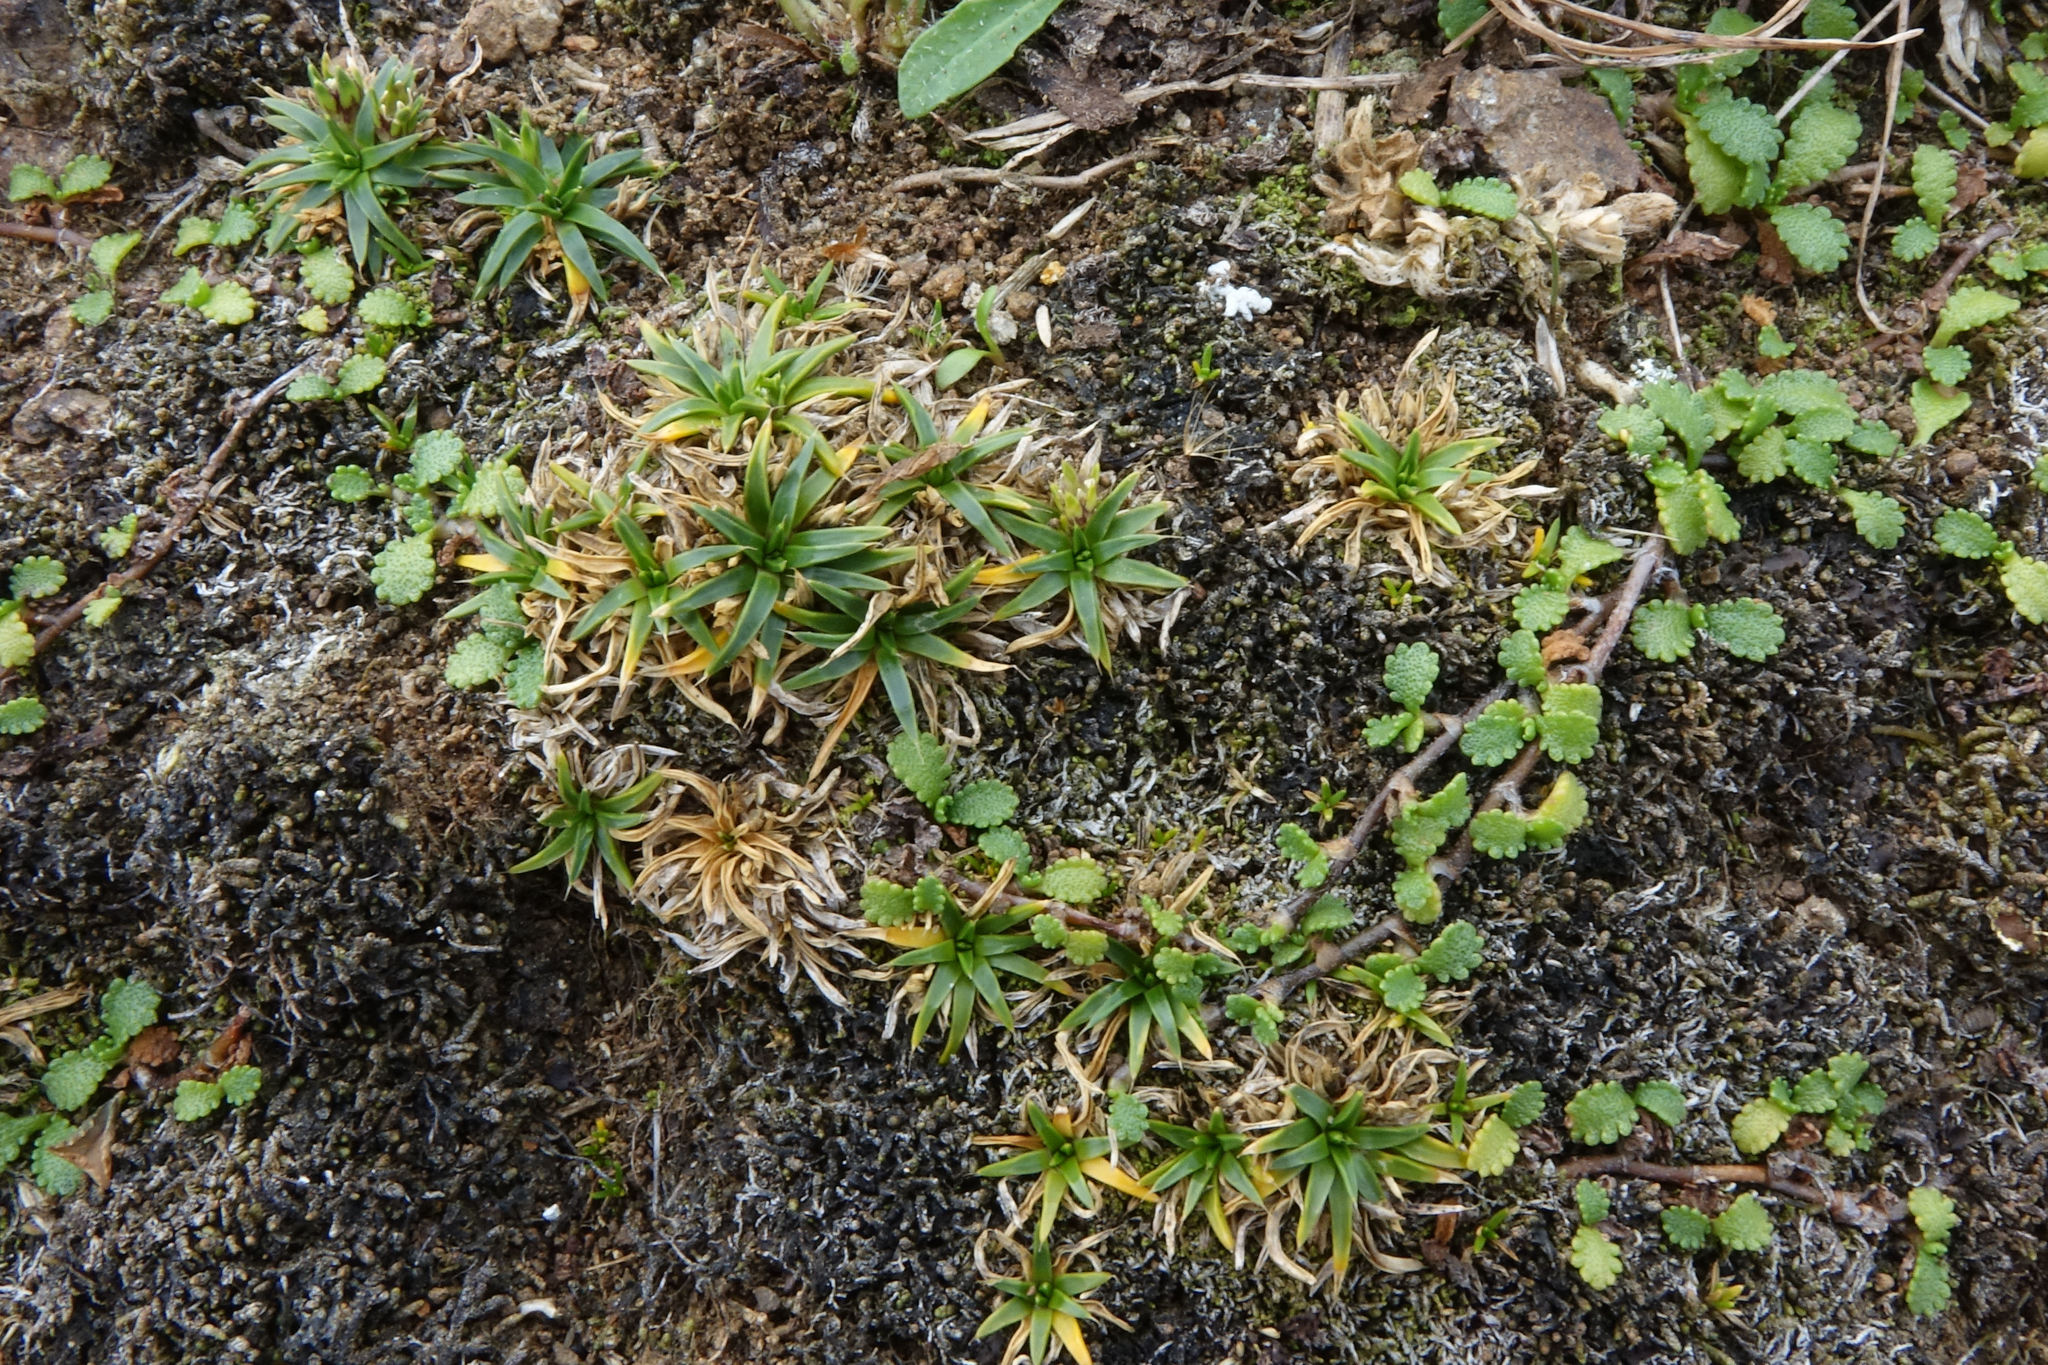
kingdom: Plantae
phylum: Tracheophyta
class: Magnoliopsida
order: Caryophyllales
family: Caryophyllaceae
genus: Colobanthus
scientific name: Colobanthus muelleri
